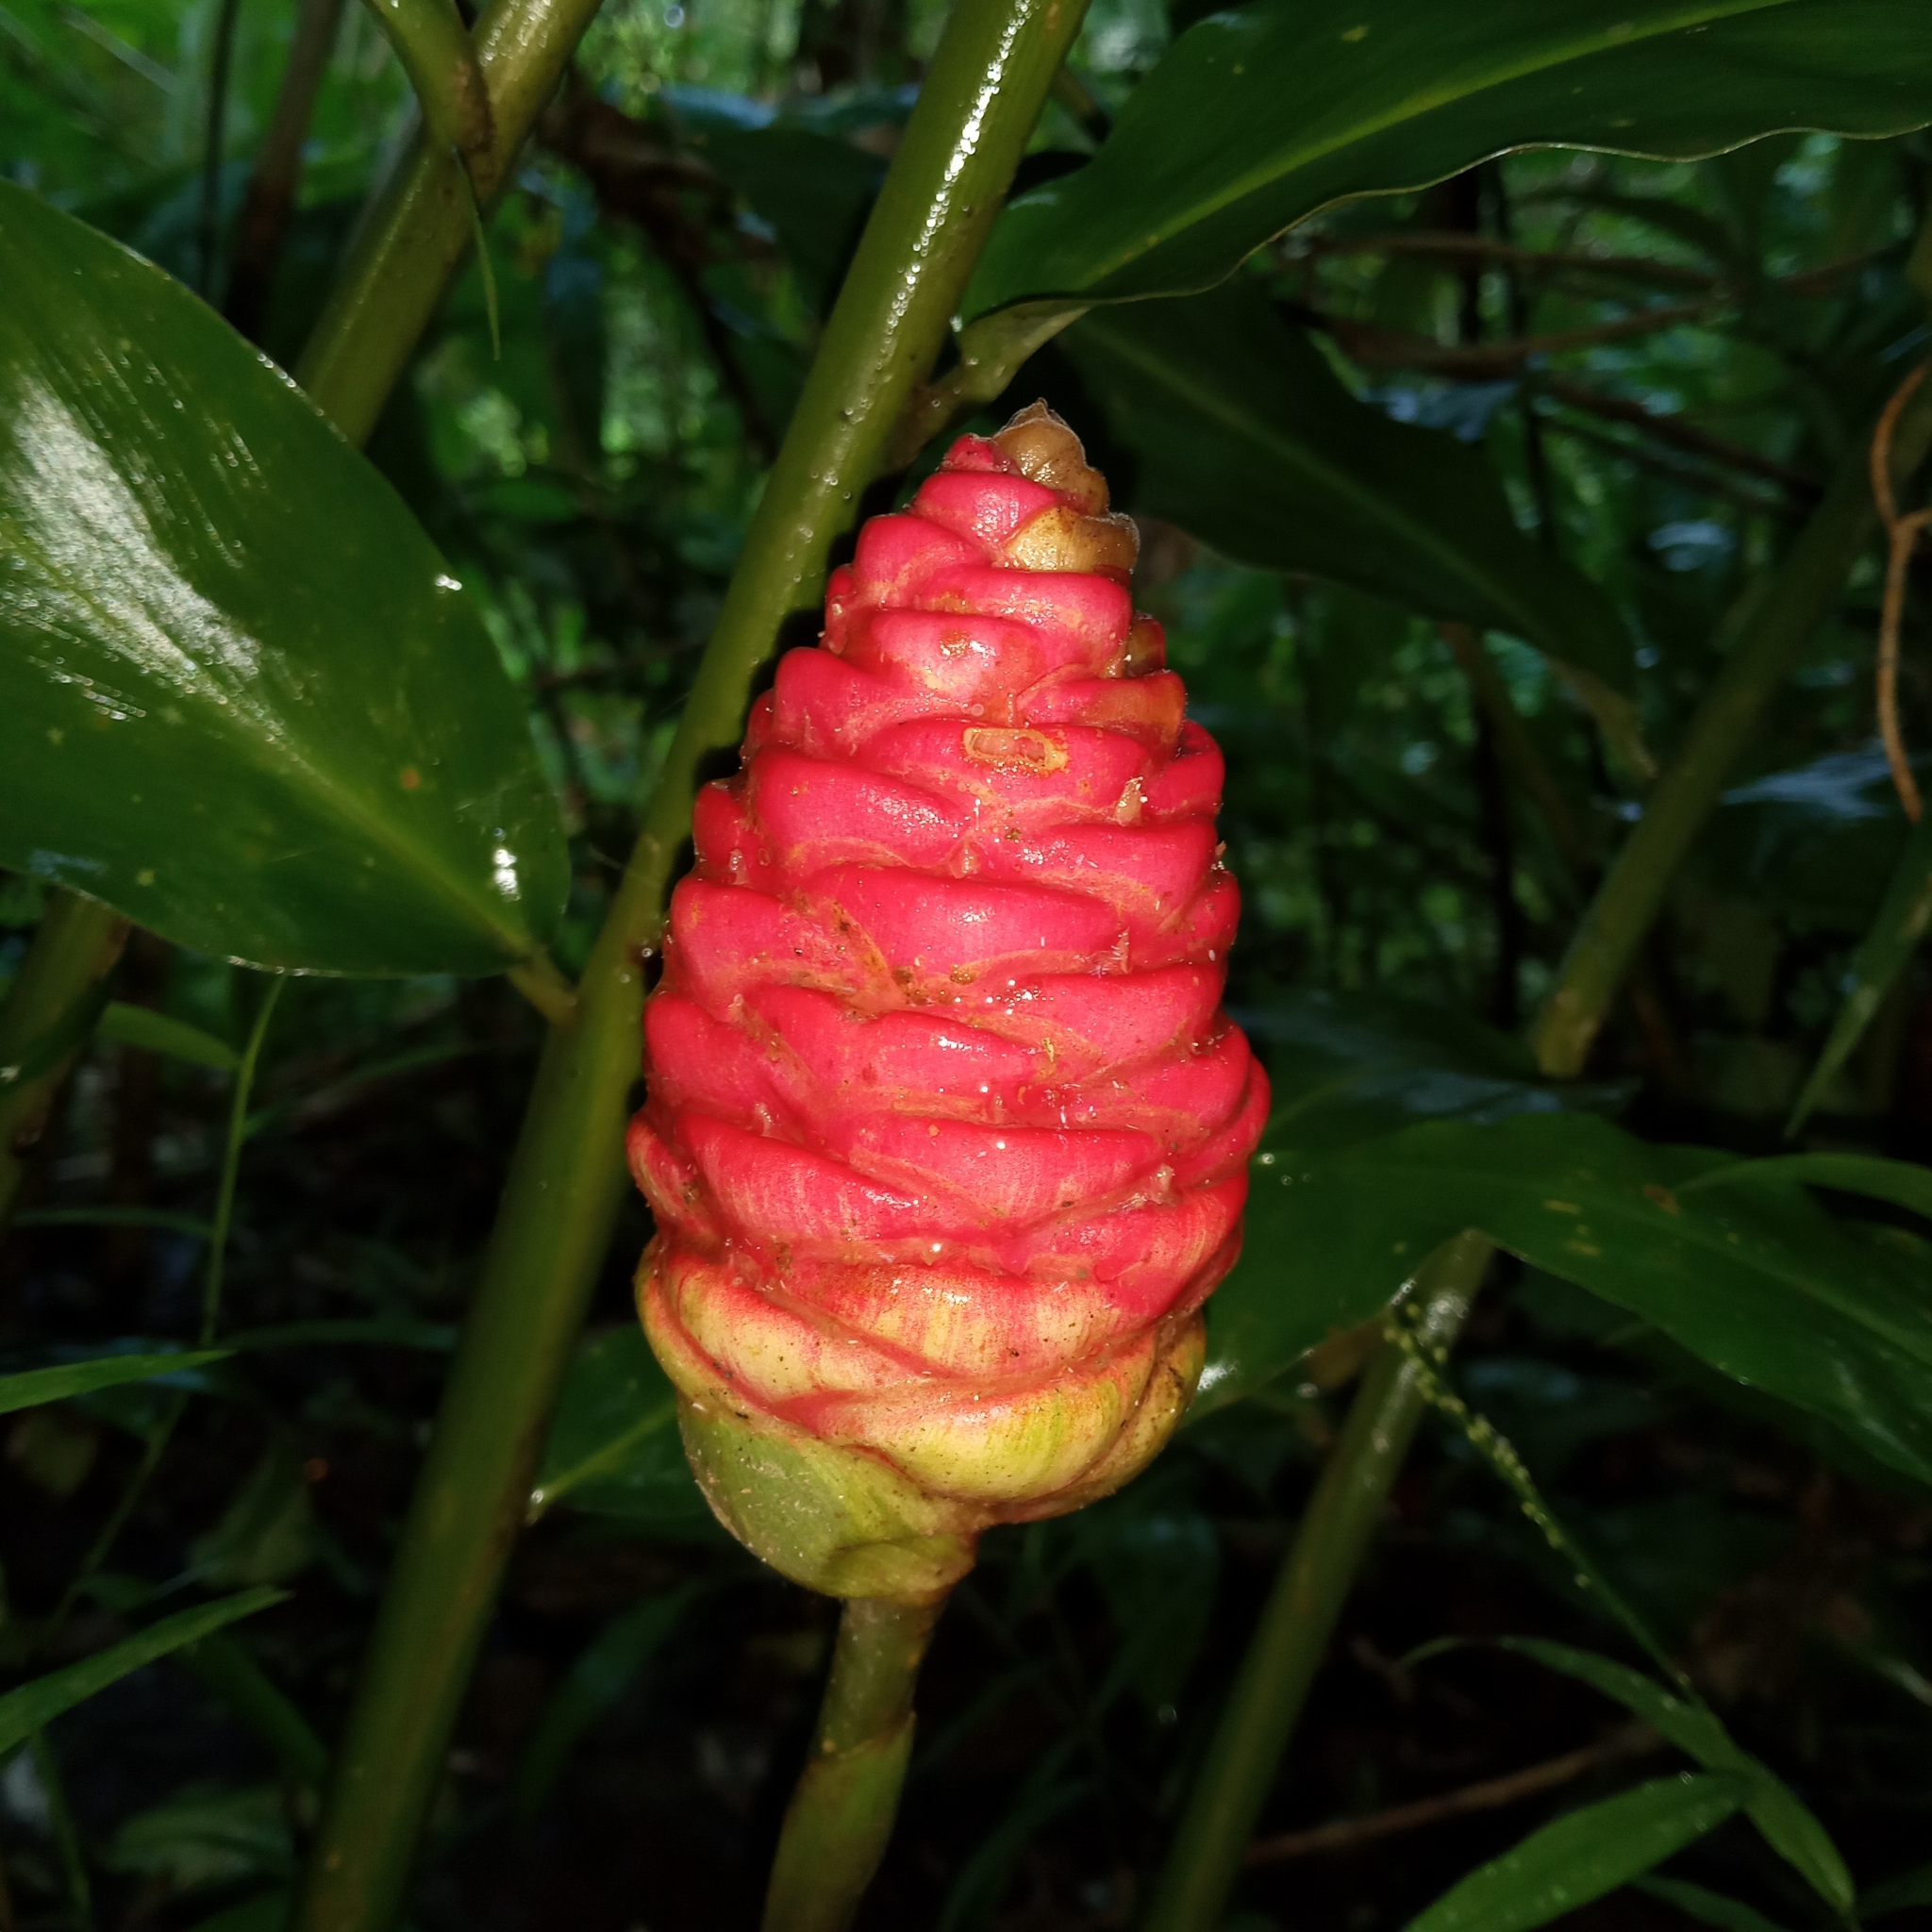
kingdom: Plantae
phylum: Tracheophyta
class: Liliopsida
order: Zingiberales
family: Zingiberaceae
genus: Zingiber
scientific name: Zingiber zerumbet
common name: Bitter ginger
